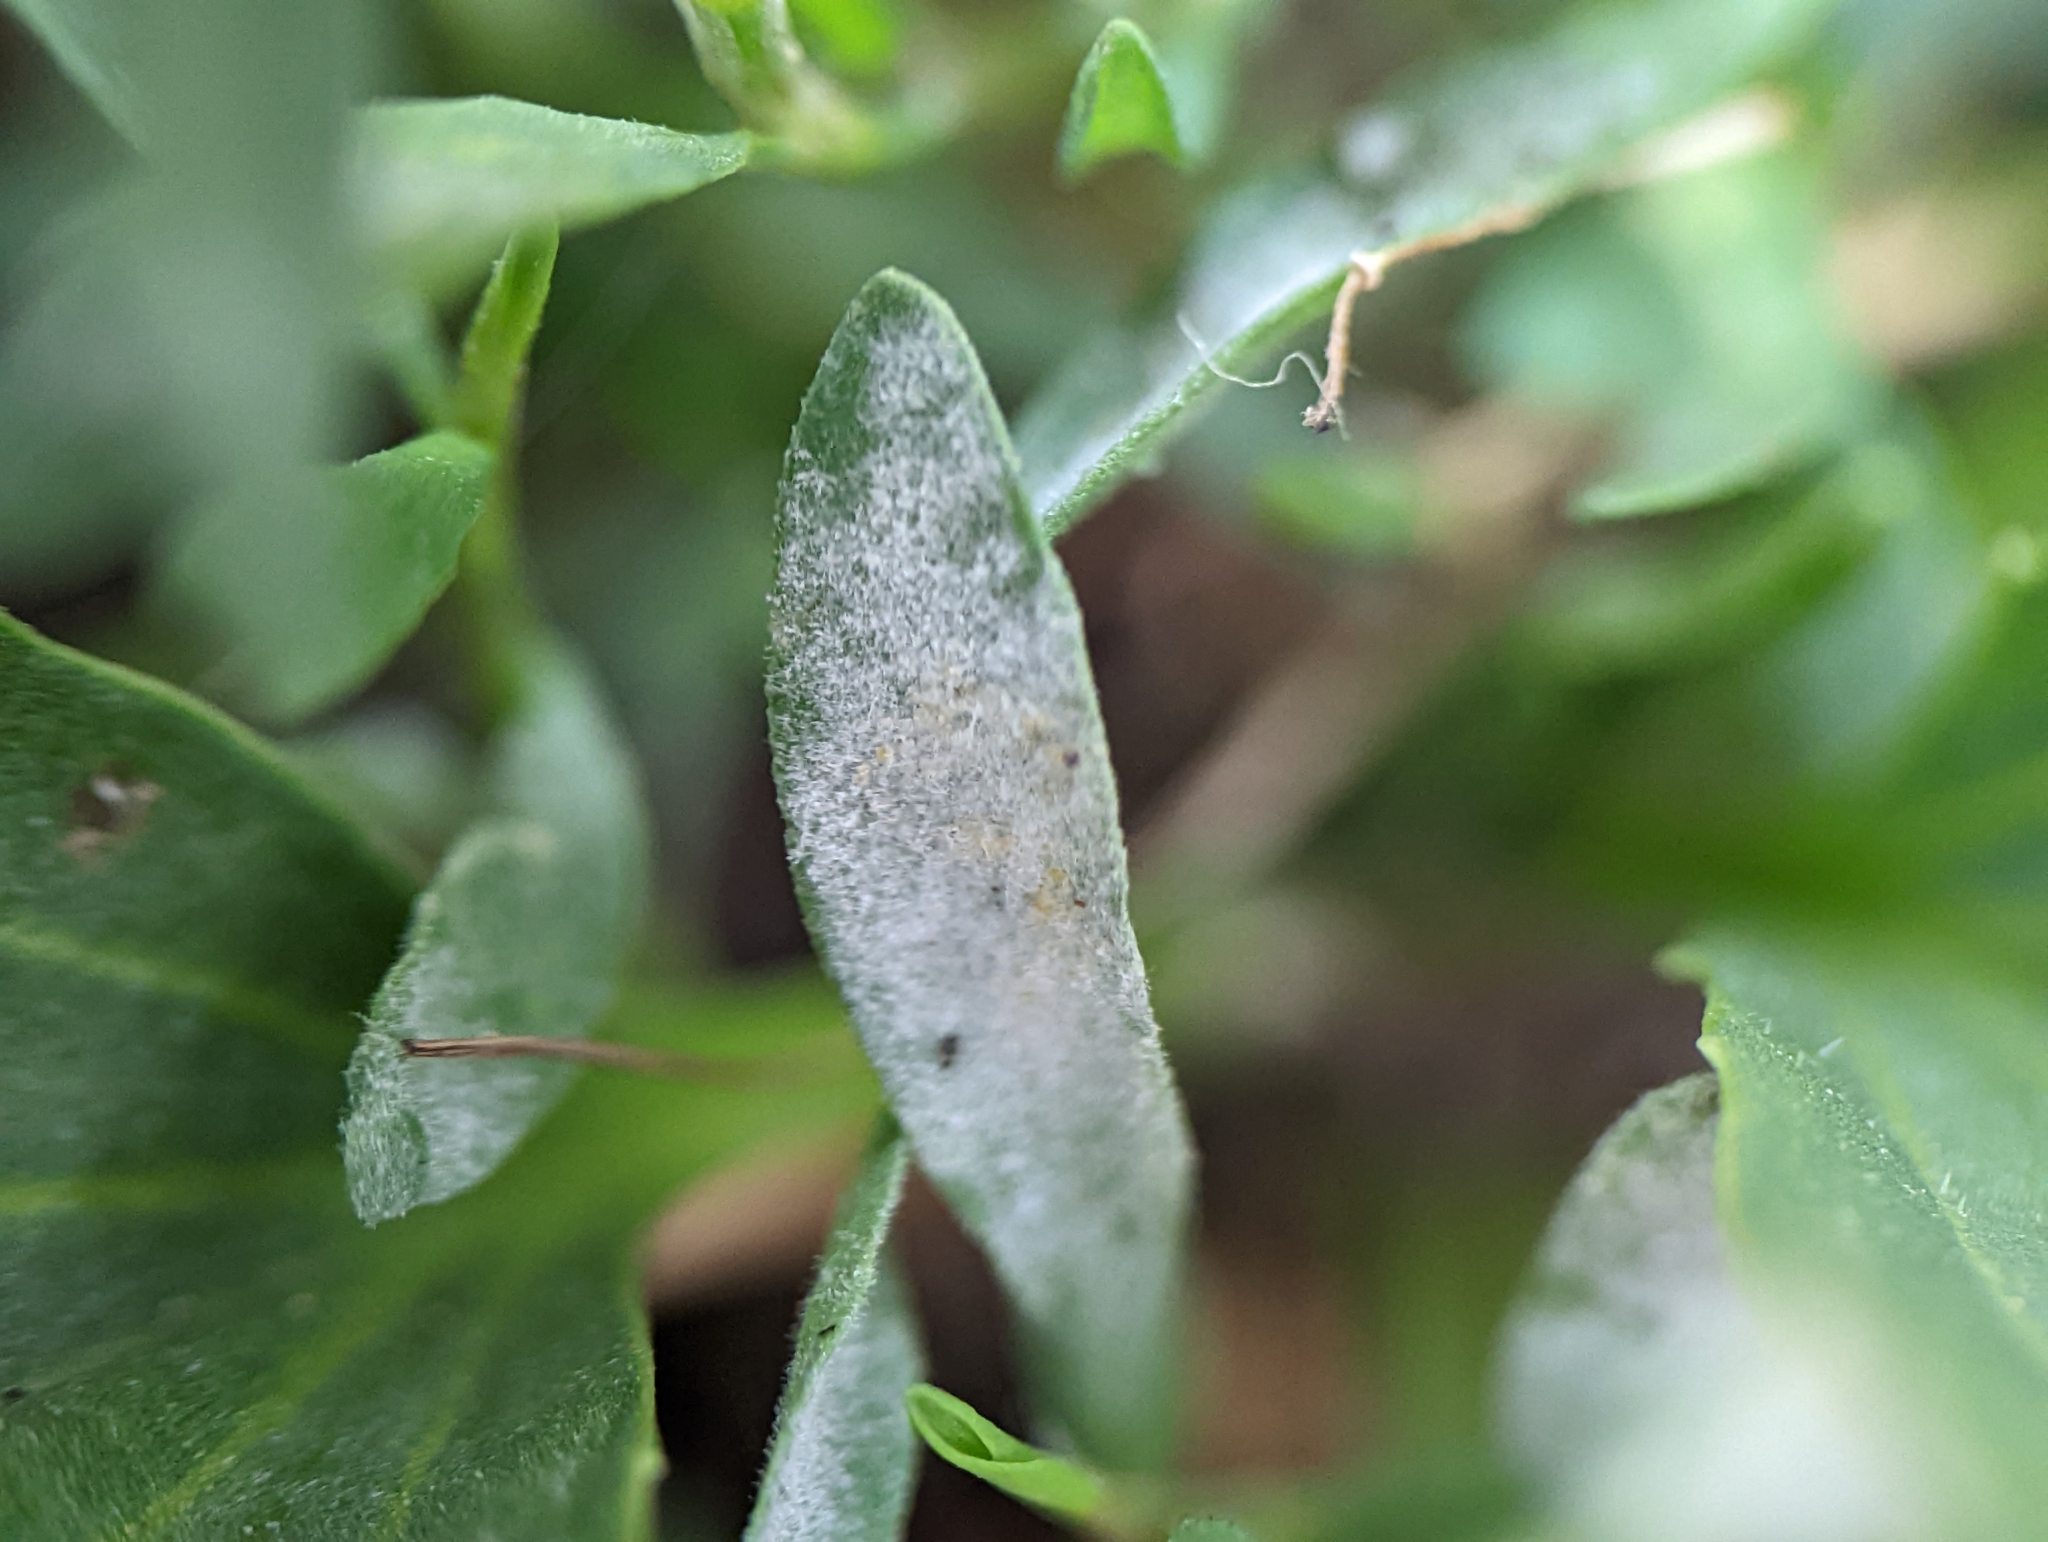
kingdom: Fungi
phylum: Ascomycota
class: Leotiomycetes
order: Helotiales
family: Erysiphaceae
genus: Erysiphe
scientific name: Erysiphe polygoni
